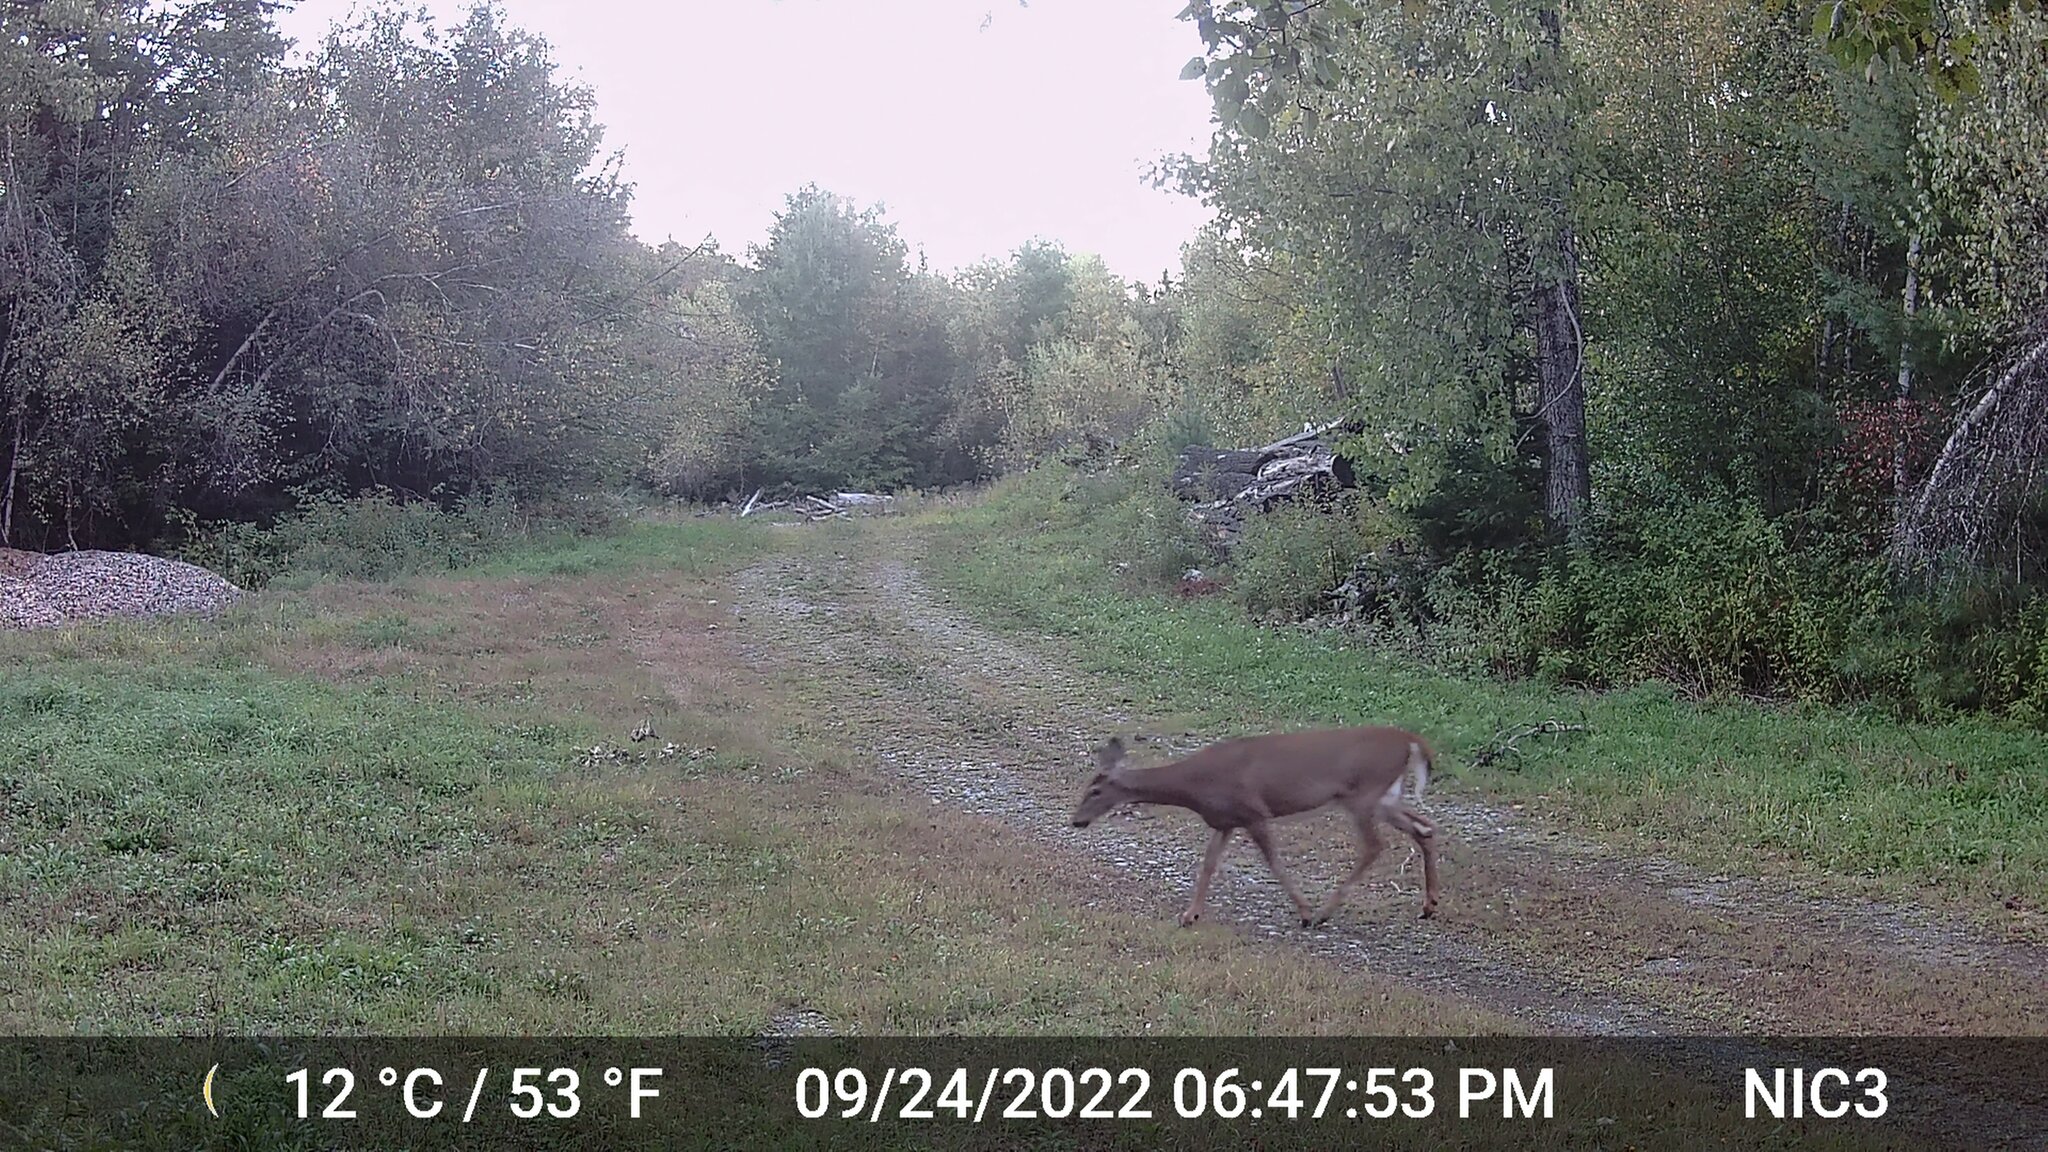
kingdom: Animalia
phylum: Chordata
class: Mammalia
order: Artiodactyla
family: Cervidae
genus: Odocoileus
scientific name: Odocoileus virginianus
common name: White-tailed deer
